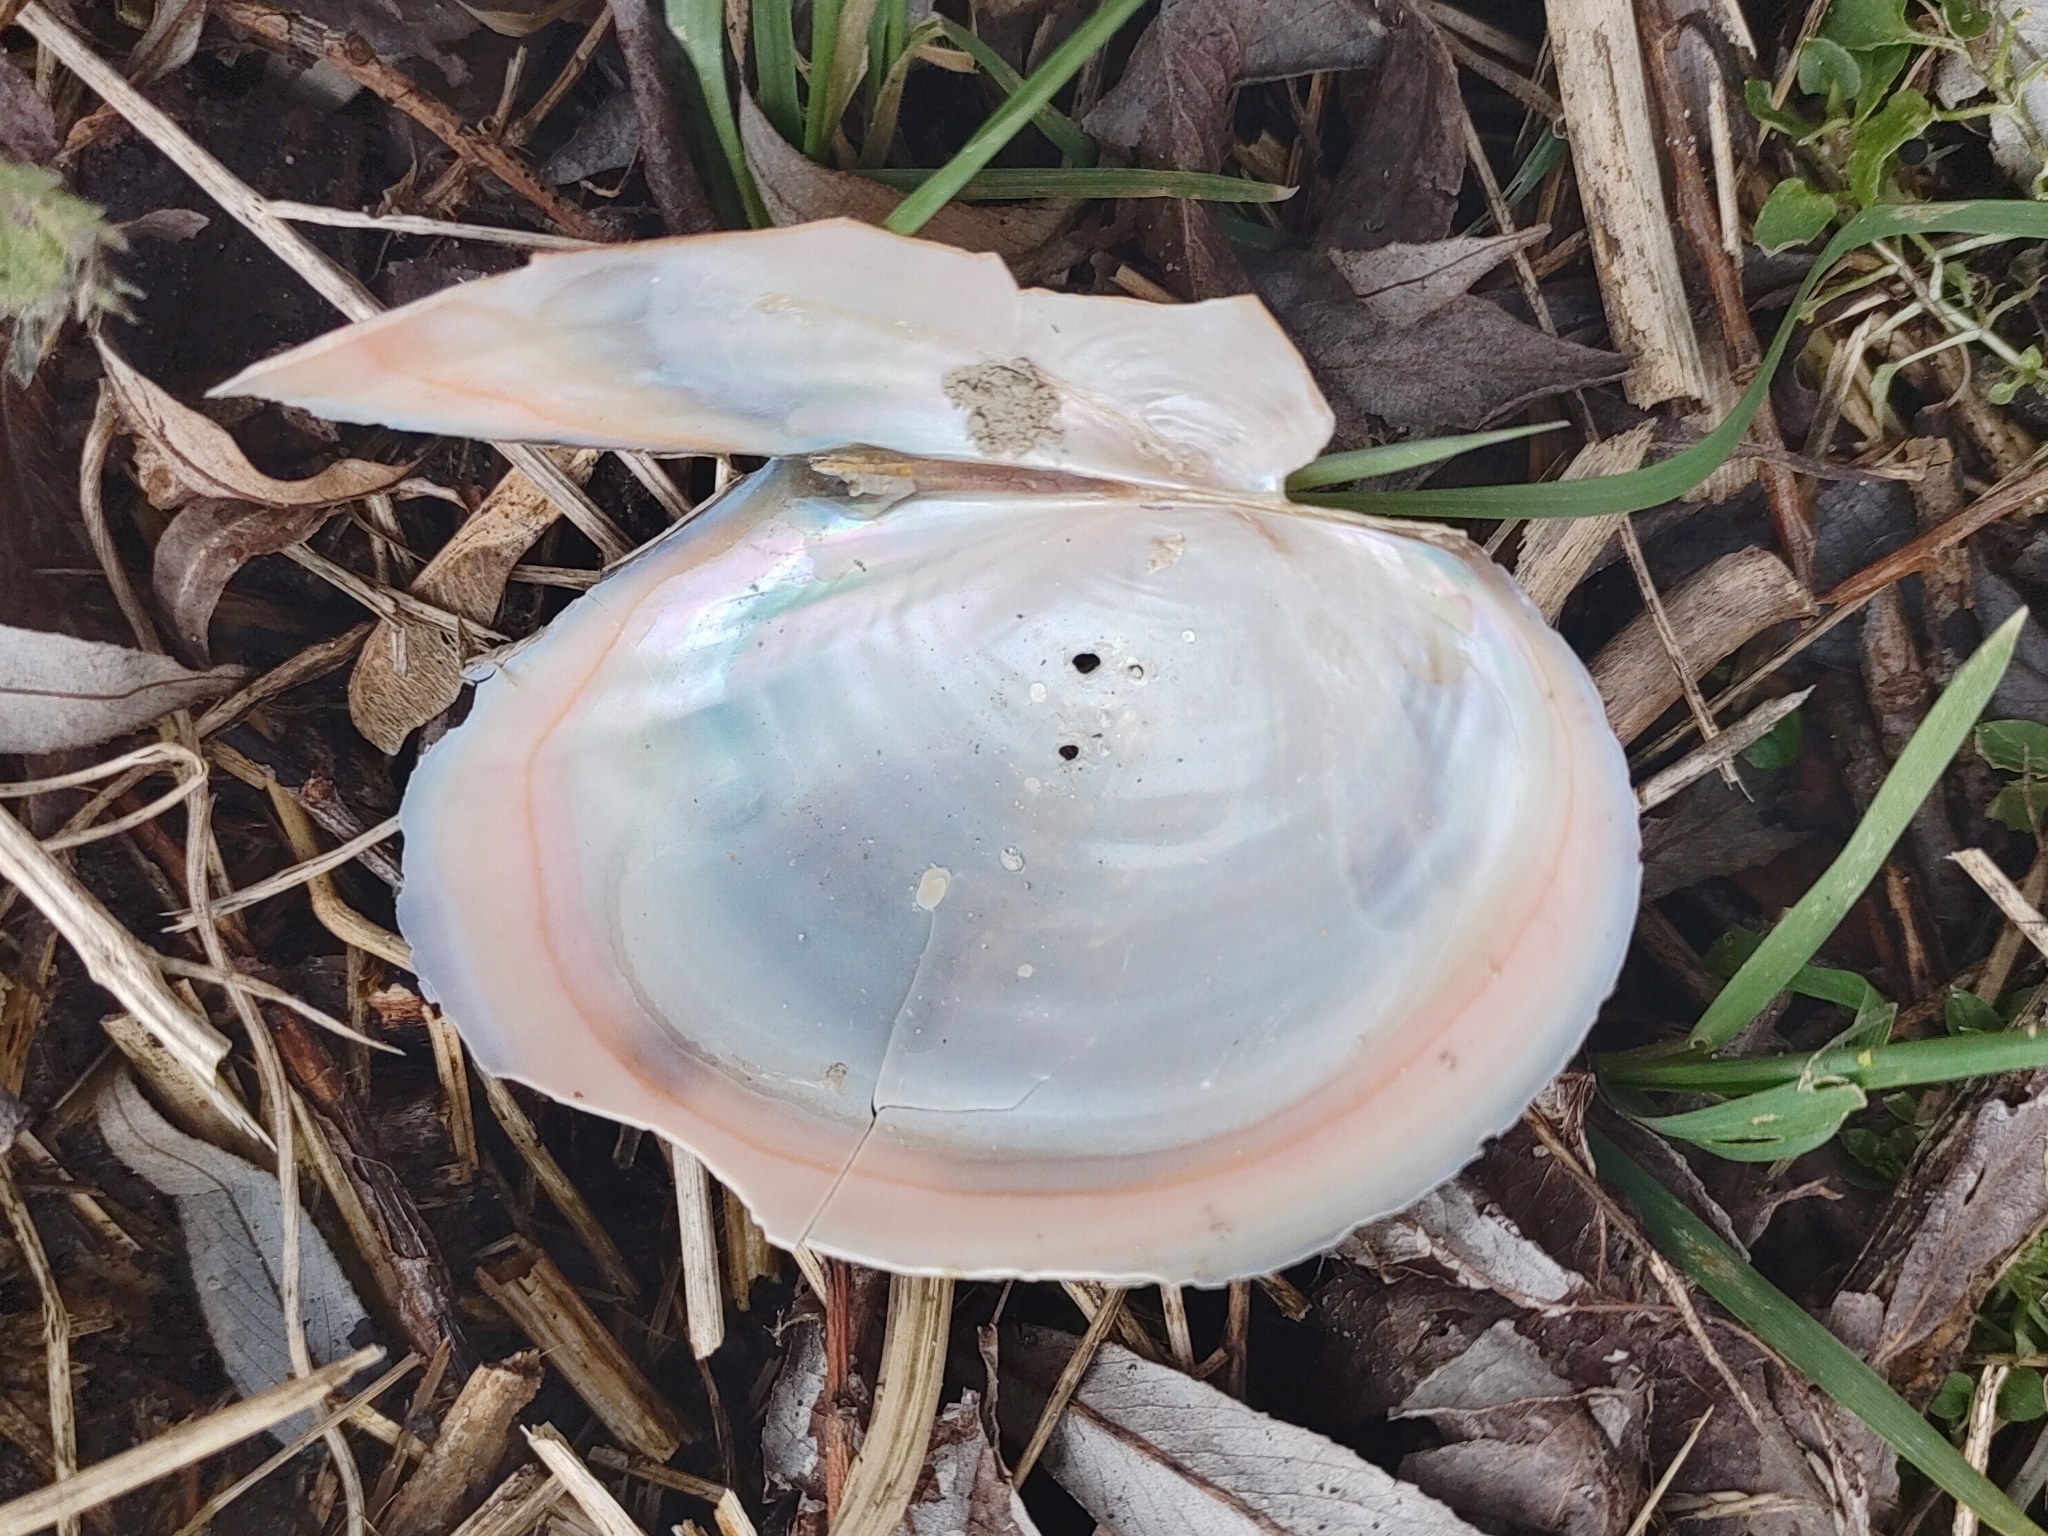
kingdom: Animalia
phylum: Mollusca
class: Bivalvia
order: Unionida
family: Unionidae
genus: Sinanodonta
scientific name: Sinanodonta woodiana
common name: Chinese pond mussel
